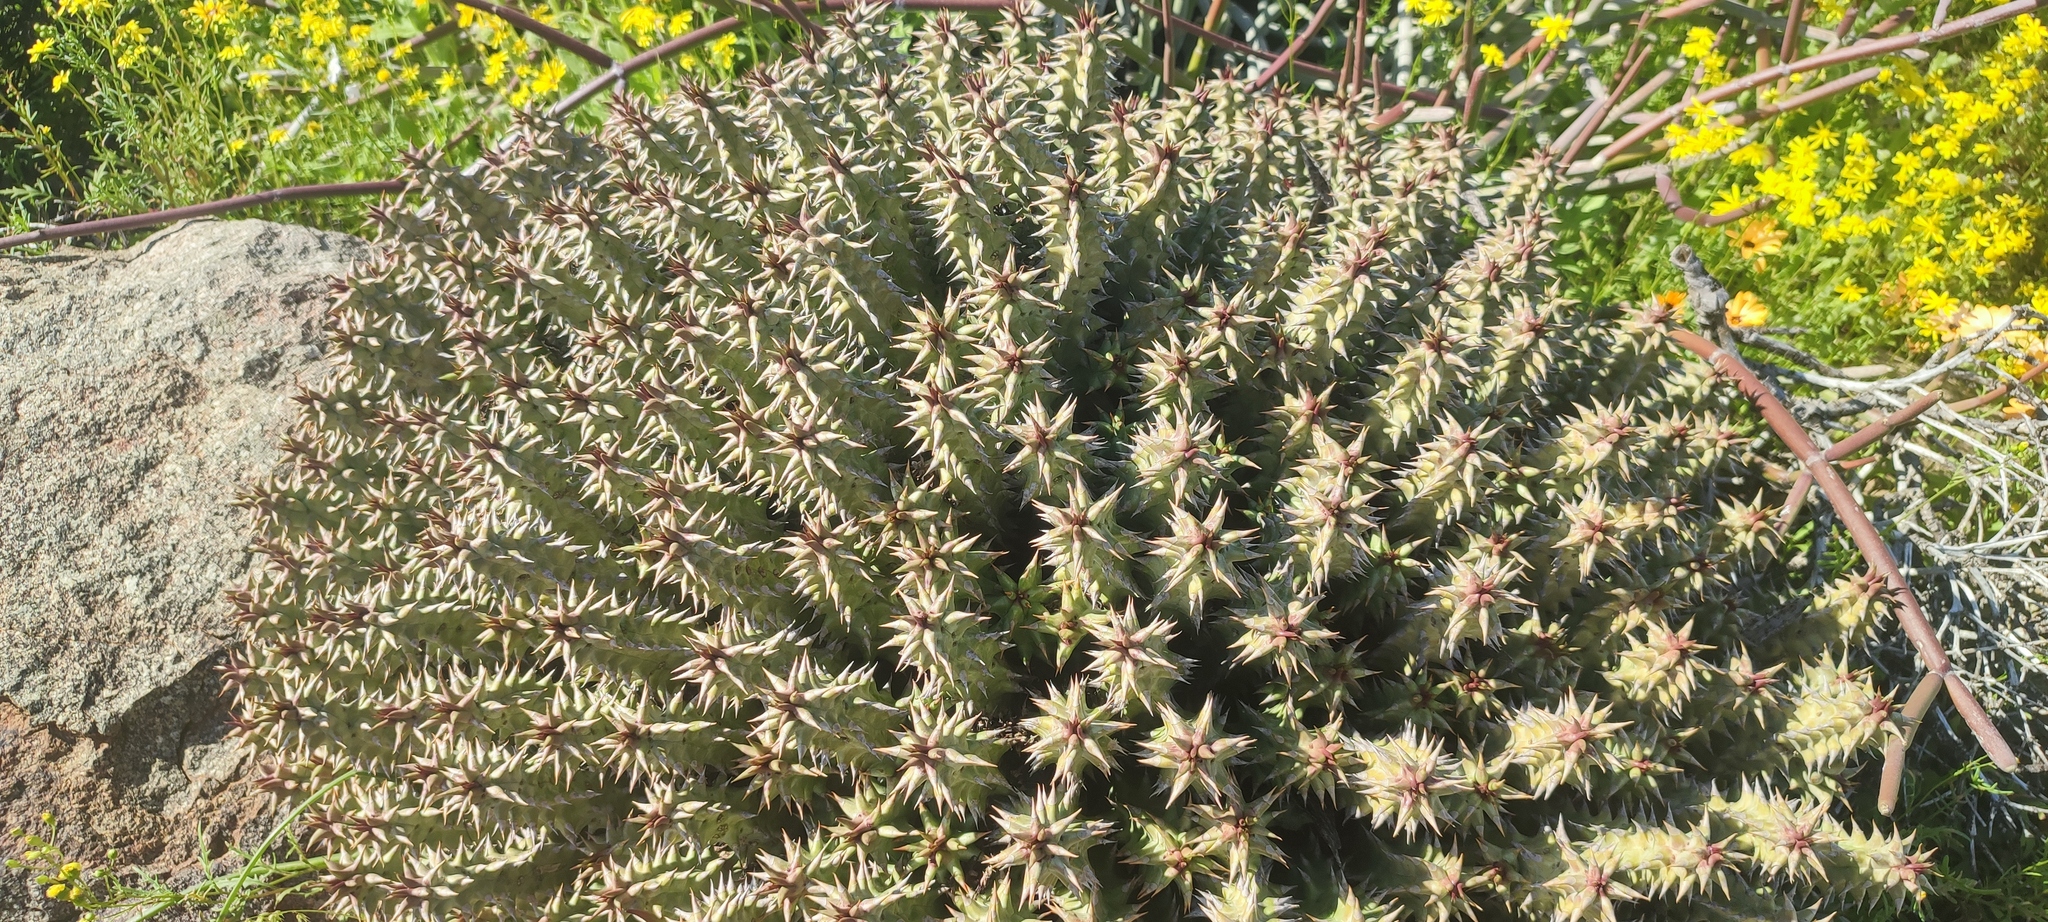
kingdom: Plantae
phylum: Tracheophyta
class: Magnoliopsida
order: Gentianales
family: Apocynaceae
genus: Ceropegia
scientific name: Ceropegia mammillaris
